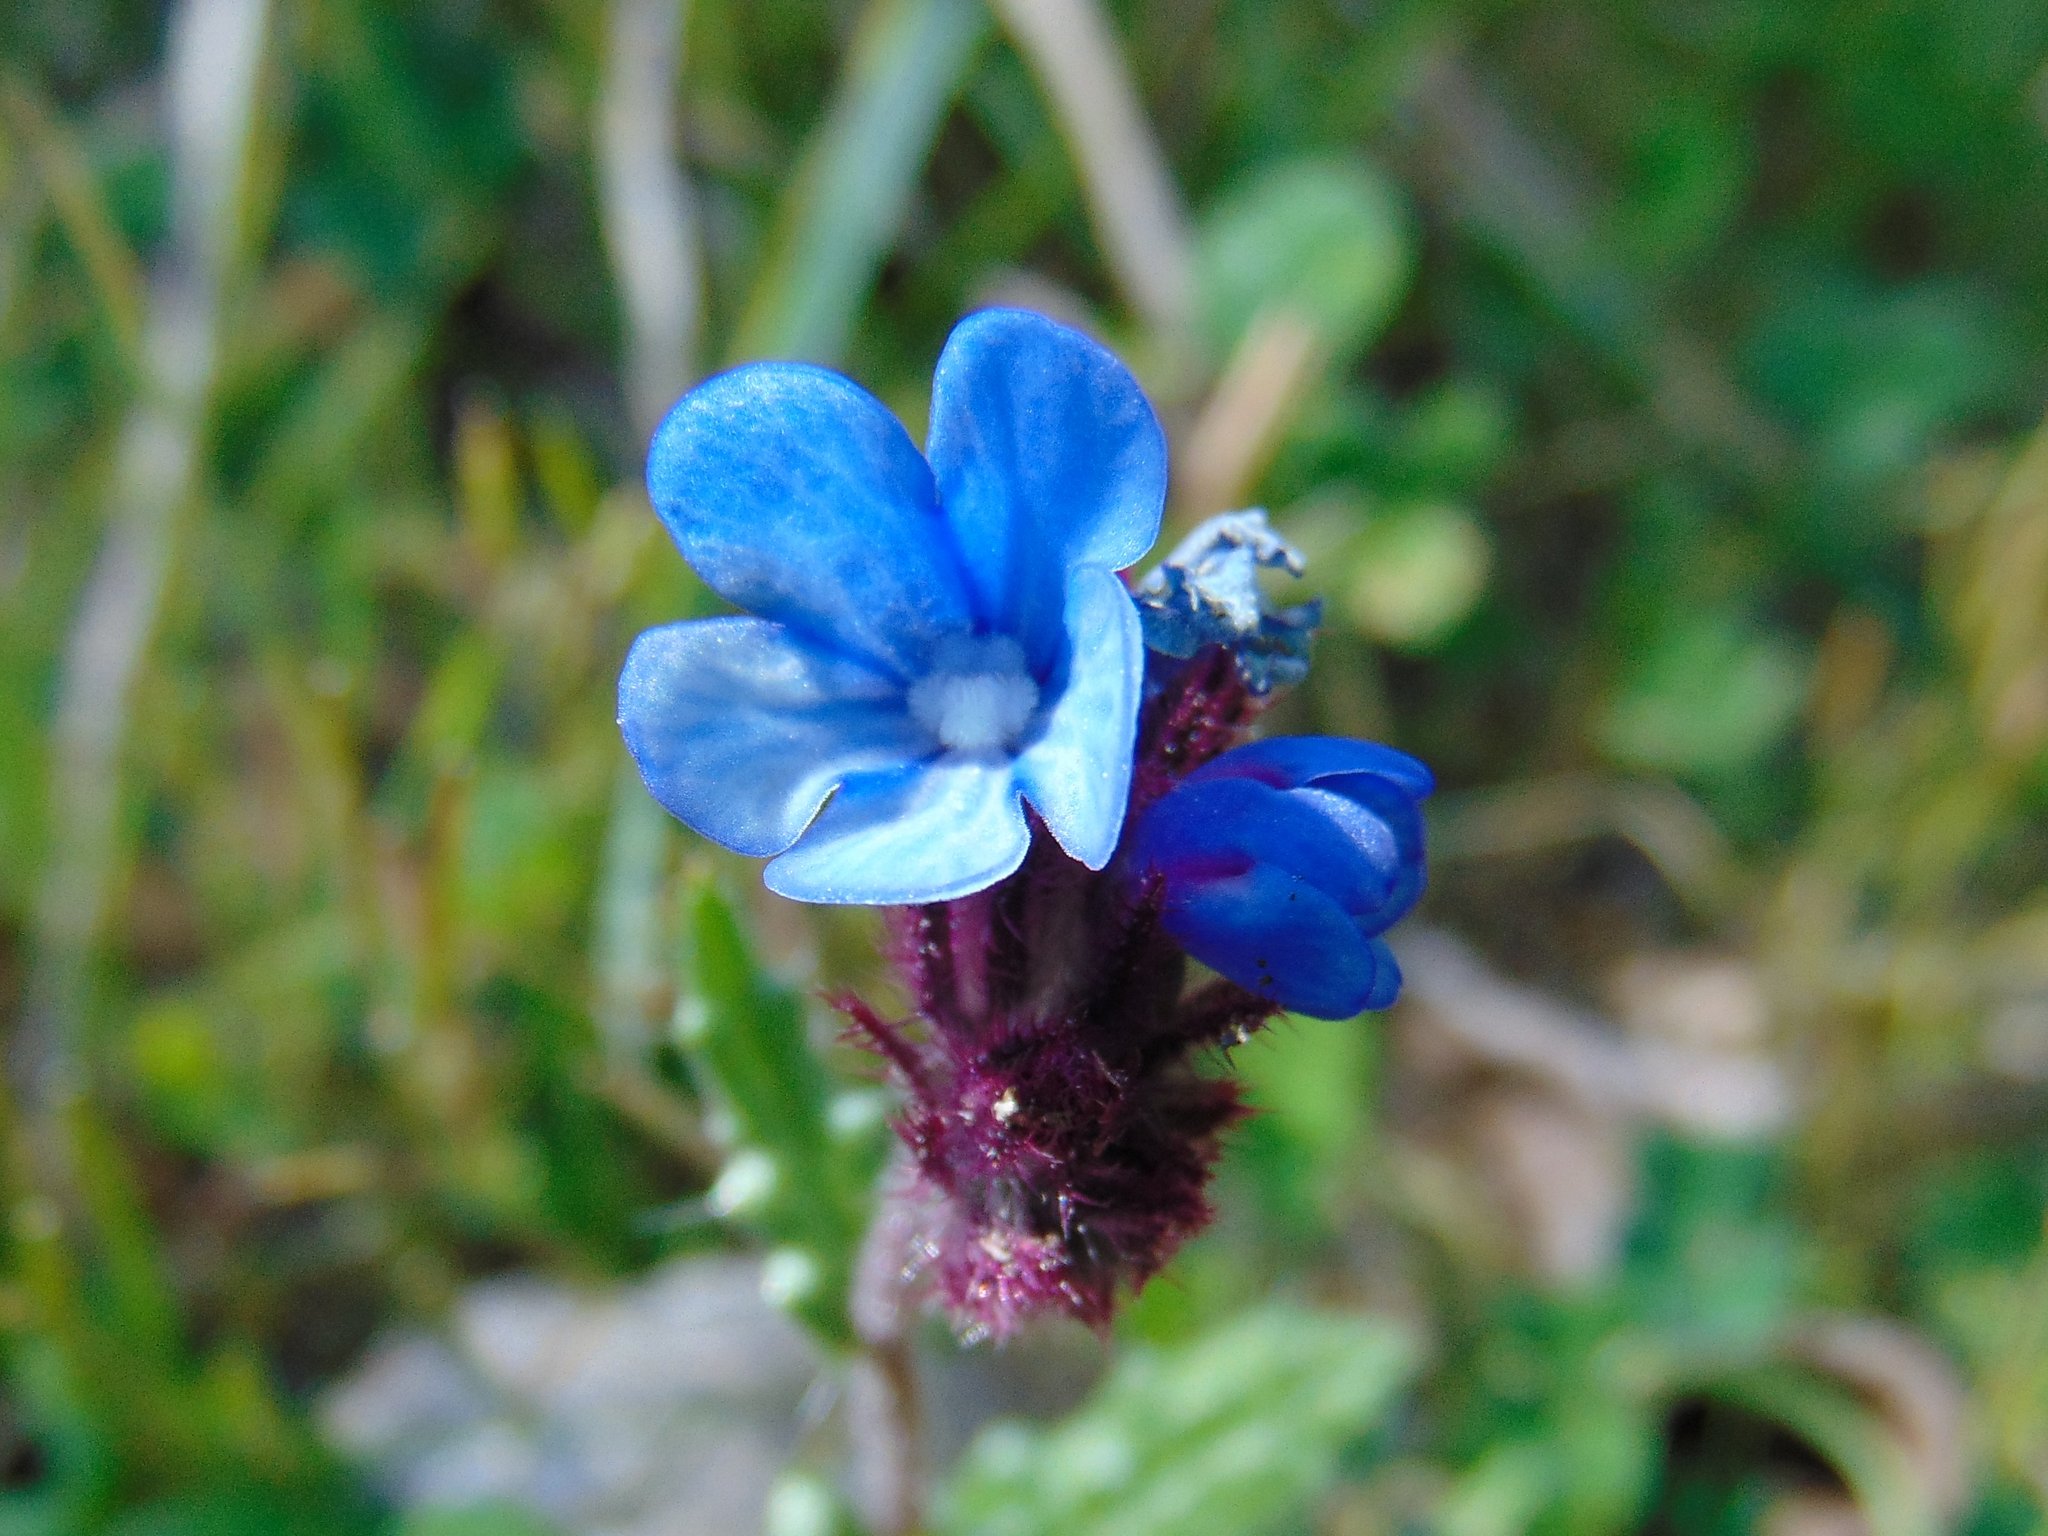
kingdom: Plantae
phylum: Tracheophyta
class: Magnoliopsida
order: Boraginales
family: Boraginaceae
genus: Anchusella
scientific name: Anchusella cretica
